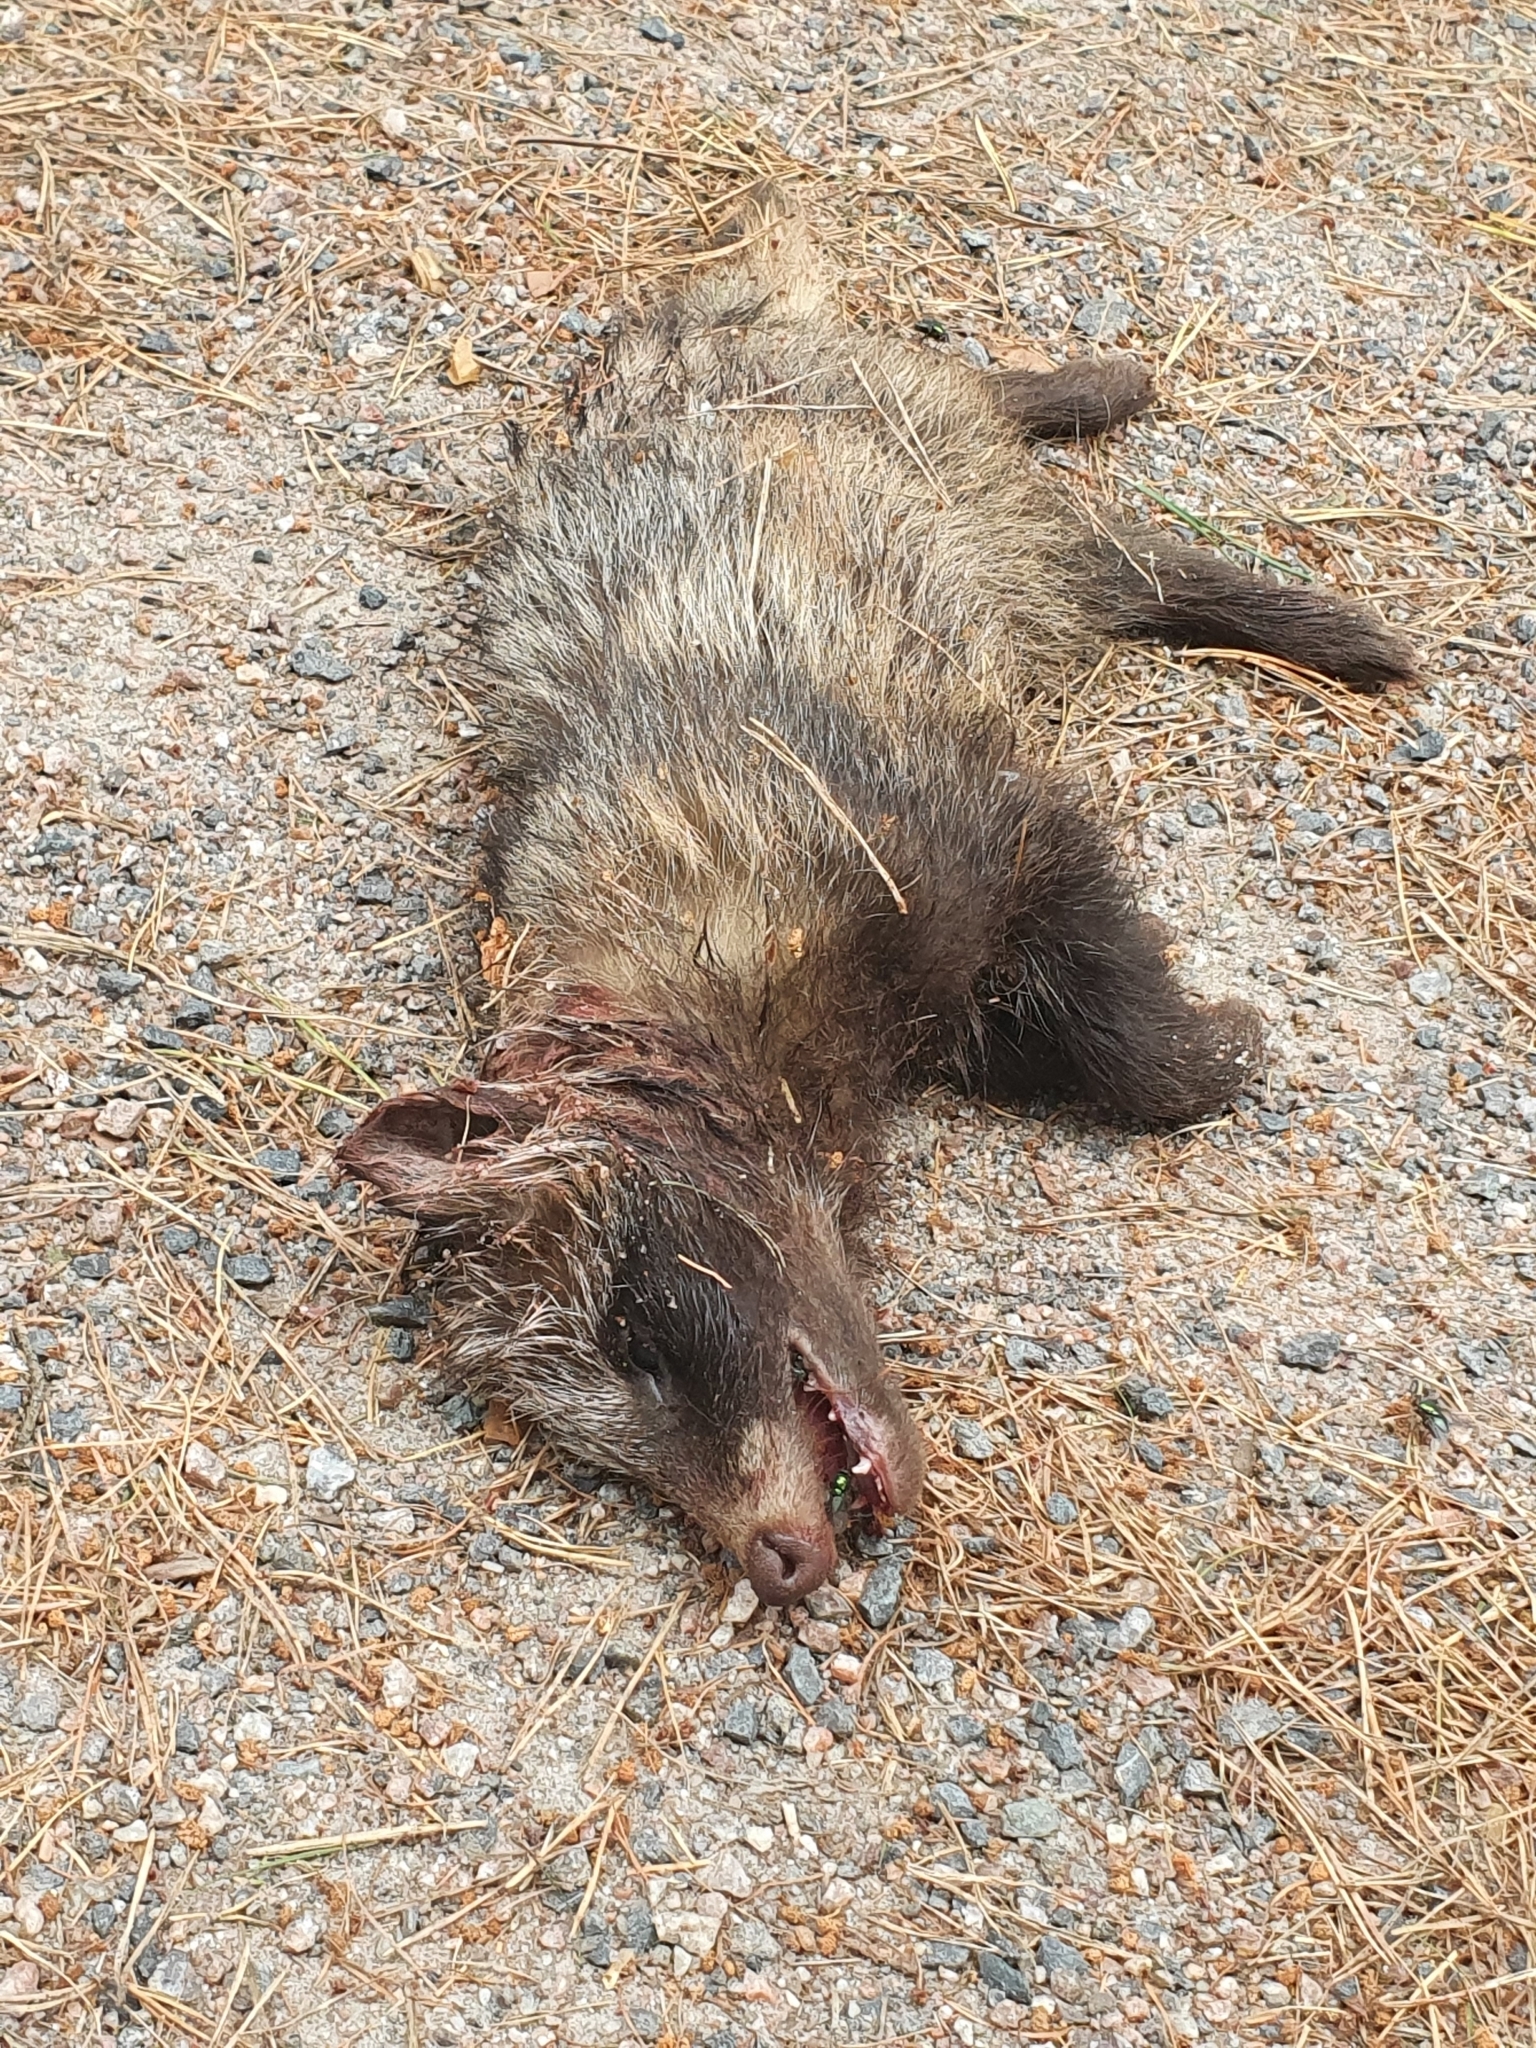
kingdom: Animalia
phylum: Chordata
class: Mammalia
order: Carnivora
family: Canidae
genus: Nyctereutes
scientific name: Nyctereutes procyonoides
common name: Raccoon dog
